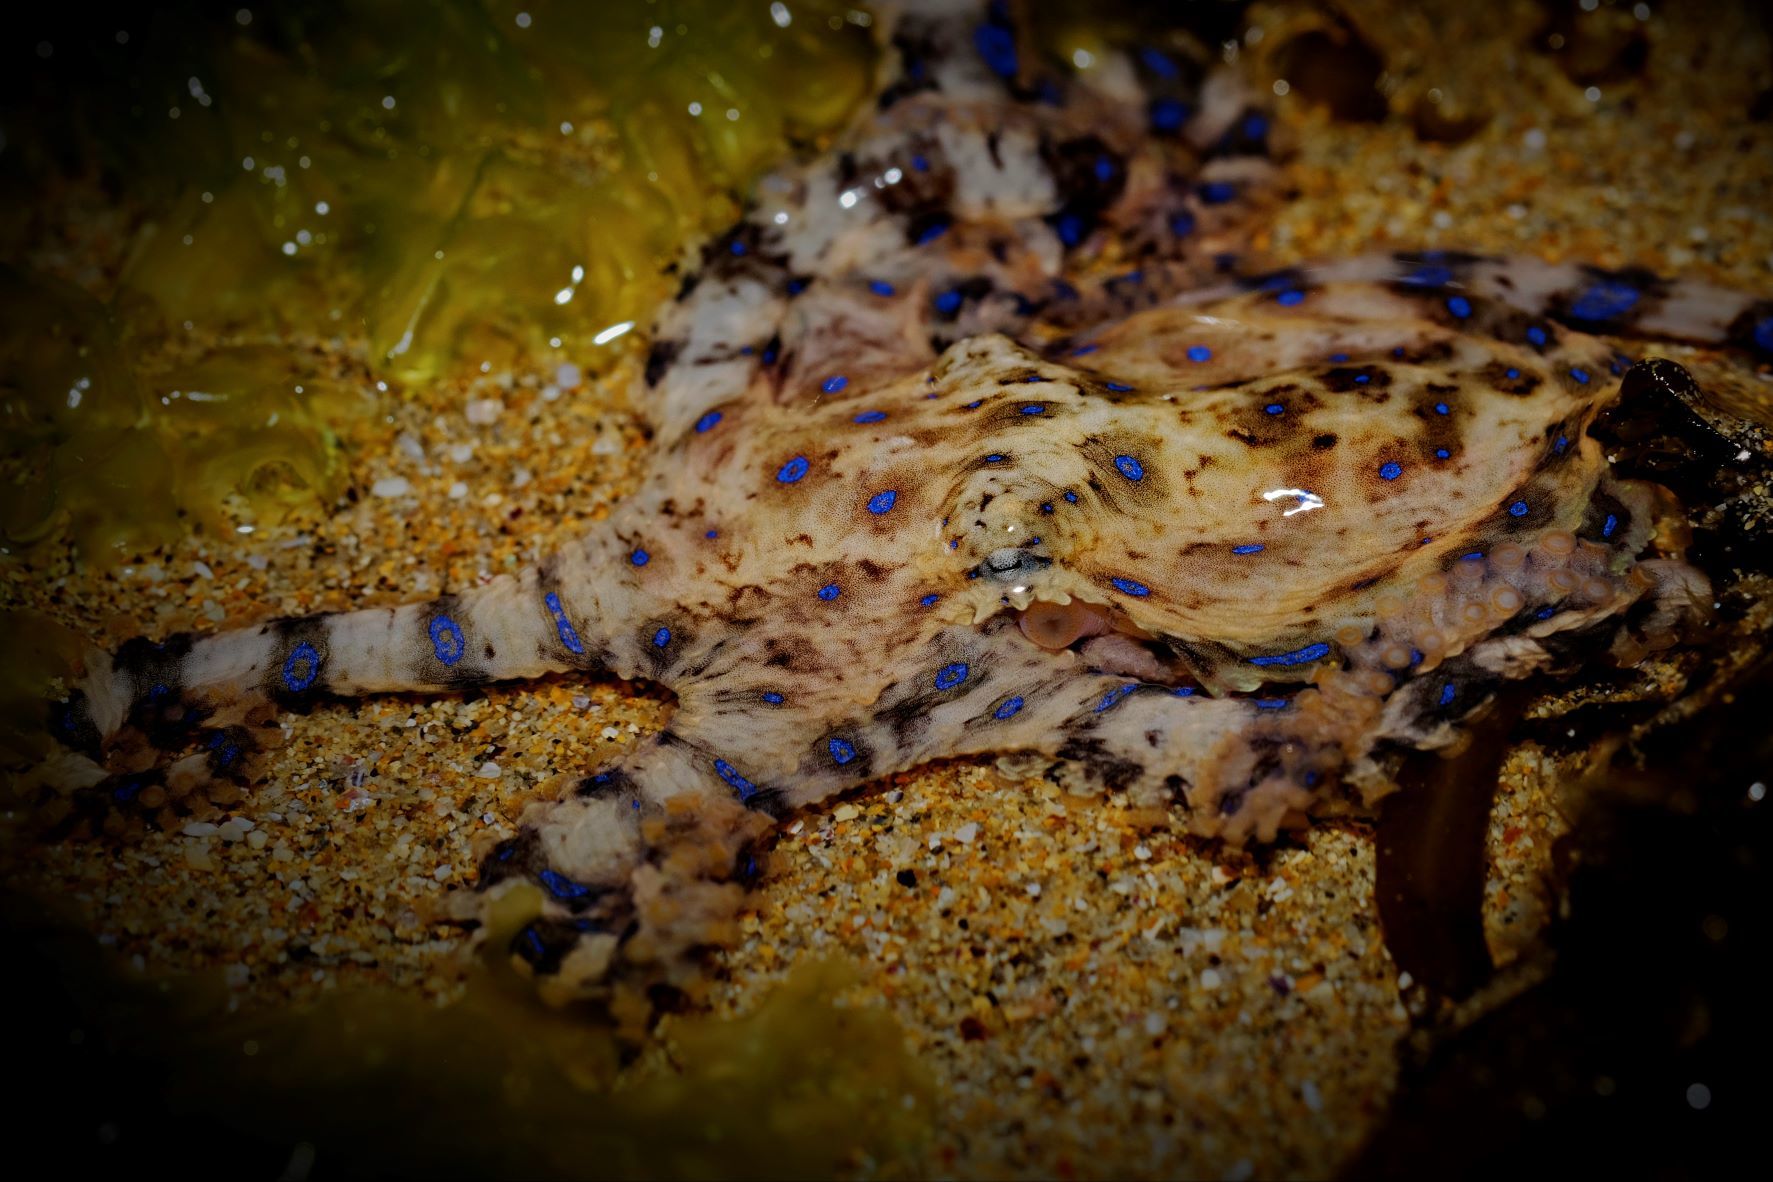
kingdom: Animalia
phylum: Mollusca
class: Cephalopoda
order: Octopoda
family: Octopodidae
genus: Hapalochlaena
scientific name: Hapalochlaena maculosa
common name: Blue-ringed octopus
